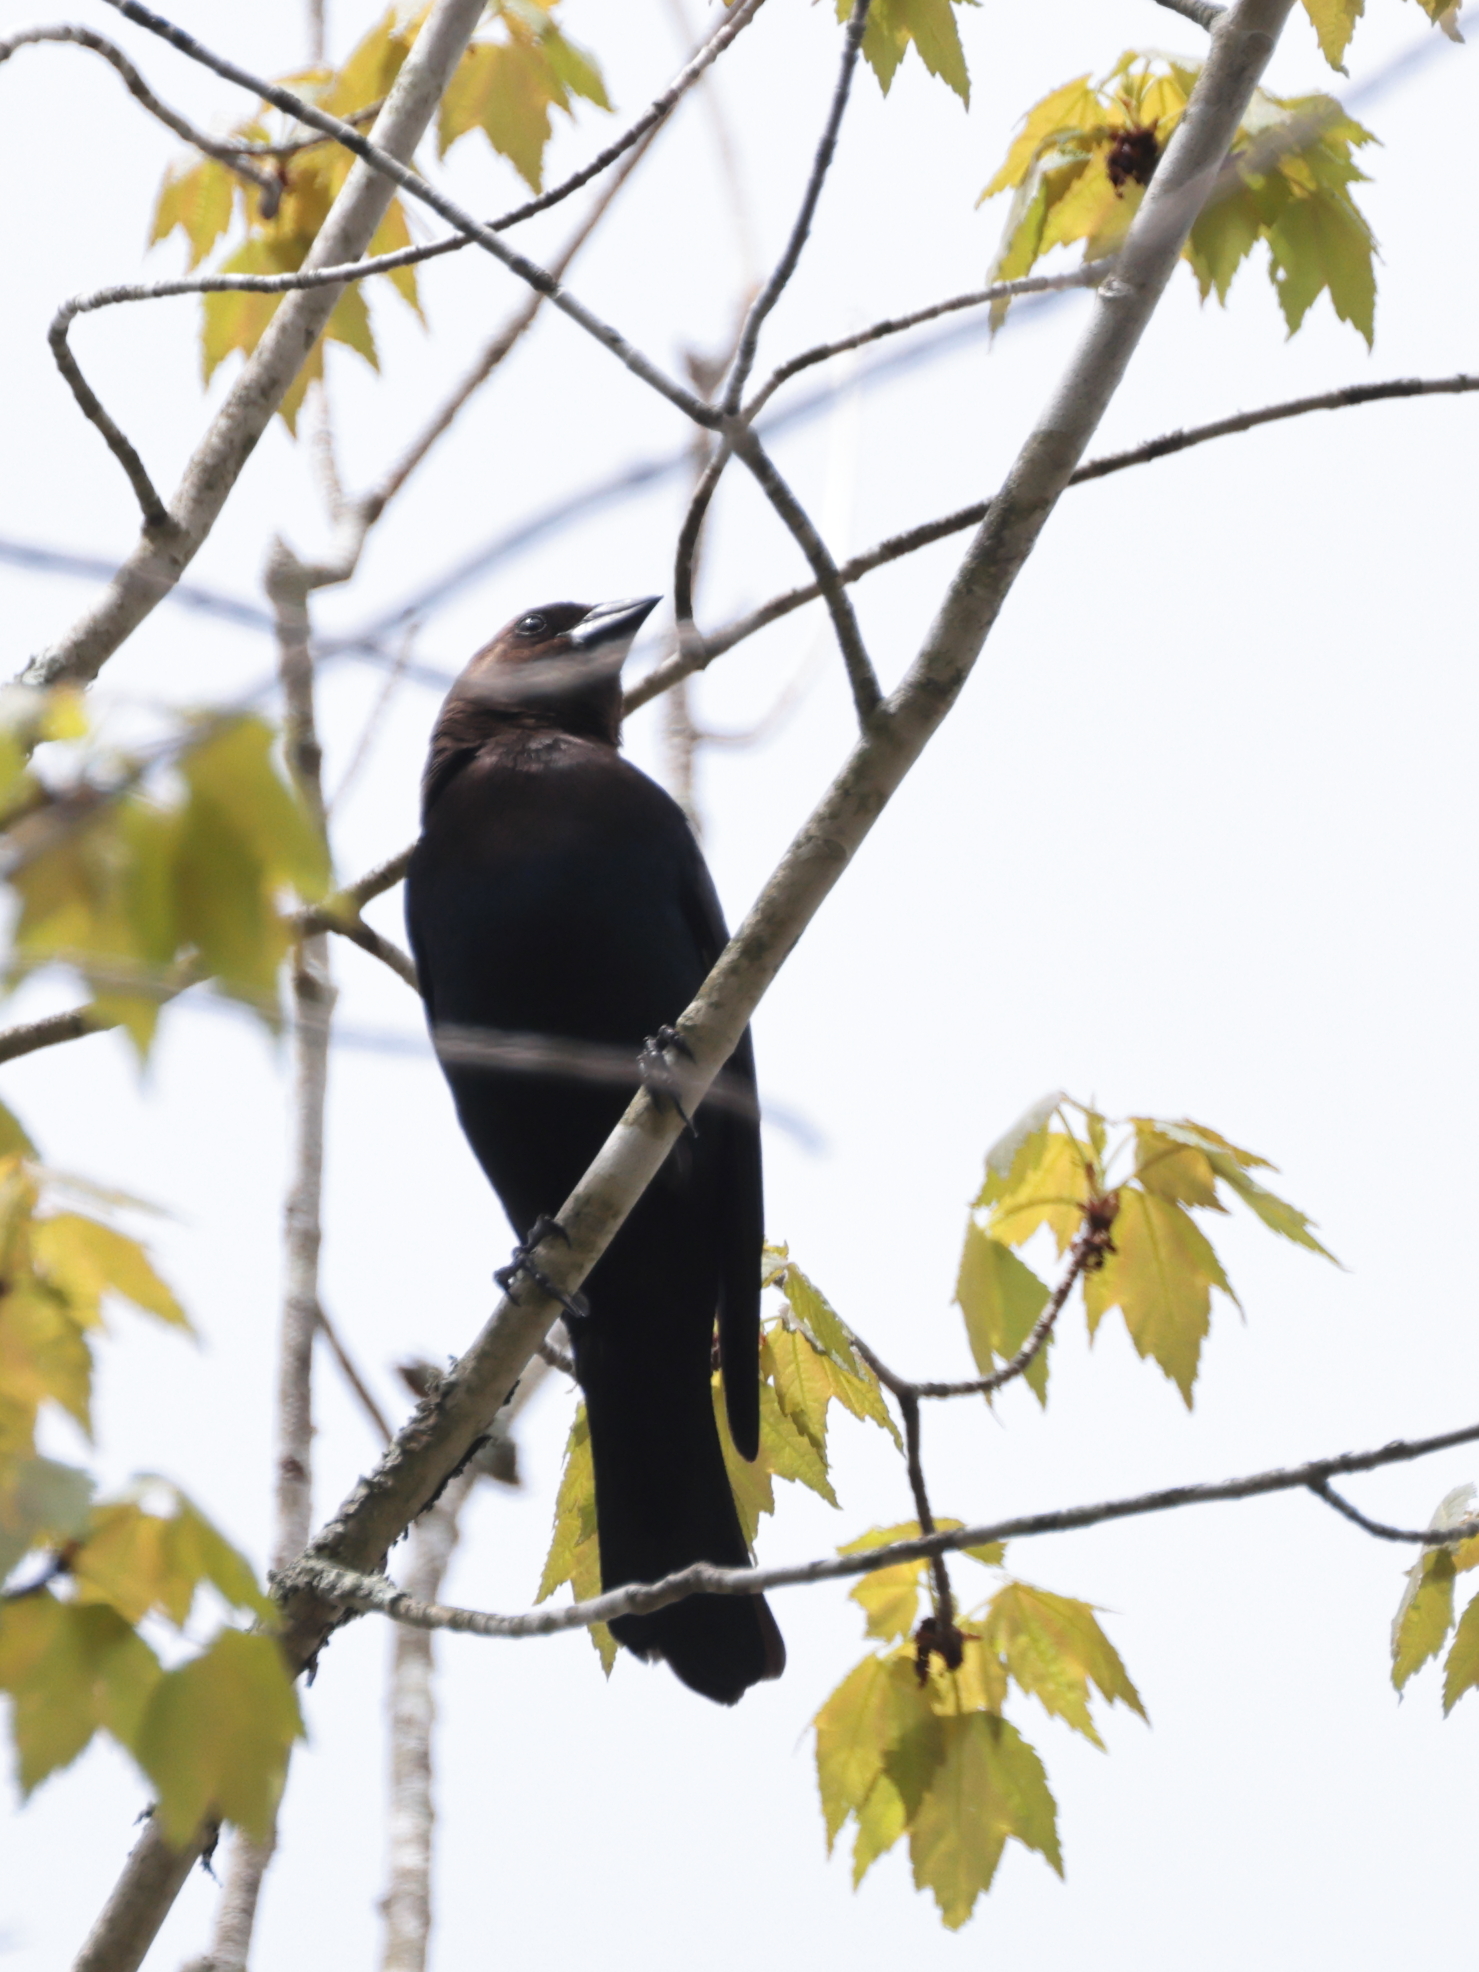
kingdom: Animalia
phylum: Chordata
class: Aves
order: Passeriformes
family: Icteridae
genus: Molothrus
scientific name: Molothrus ater
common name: Brown-headed cowbird
